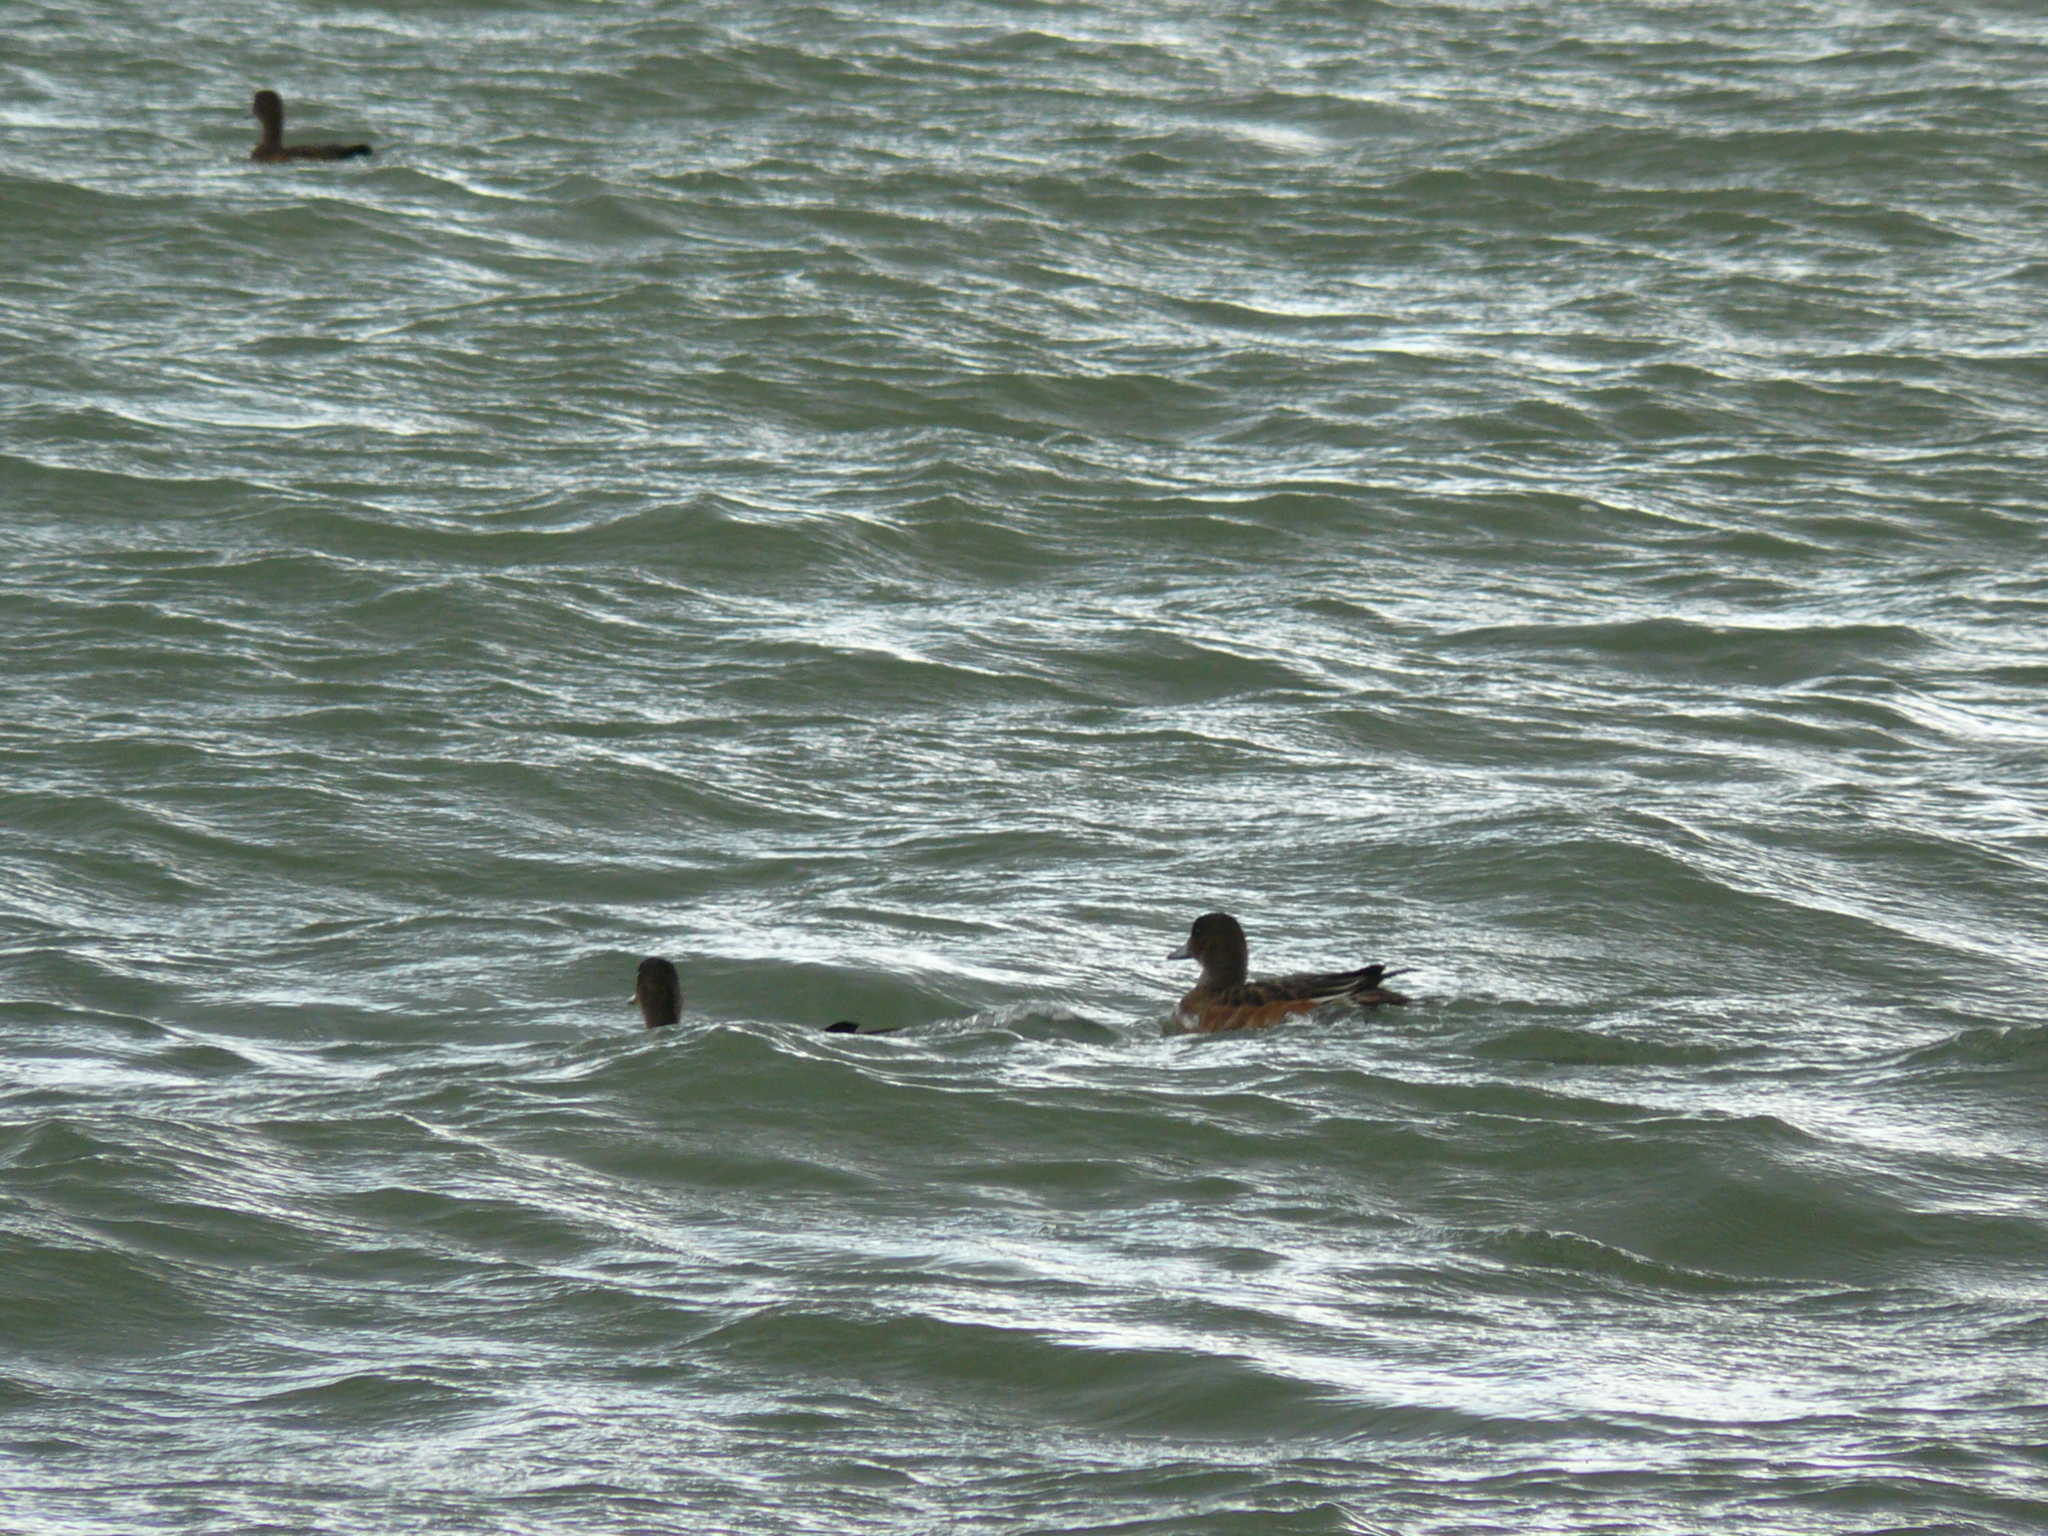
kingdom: Animalia
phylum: Chordata
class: Aves
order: Anseriformes
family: Anatidae
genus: Mareca
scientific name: Mareca penelope
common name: Eurasian wigeon
